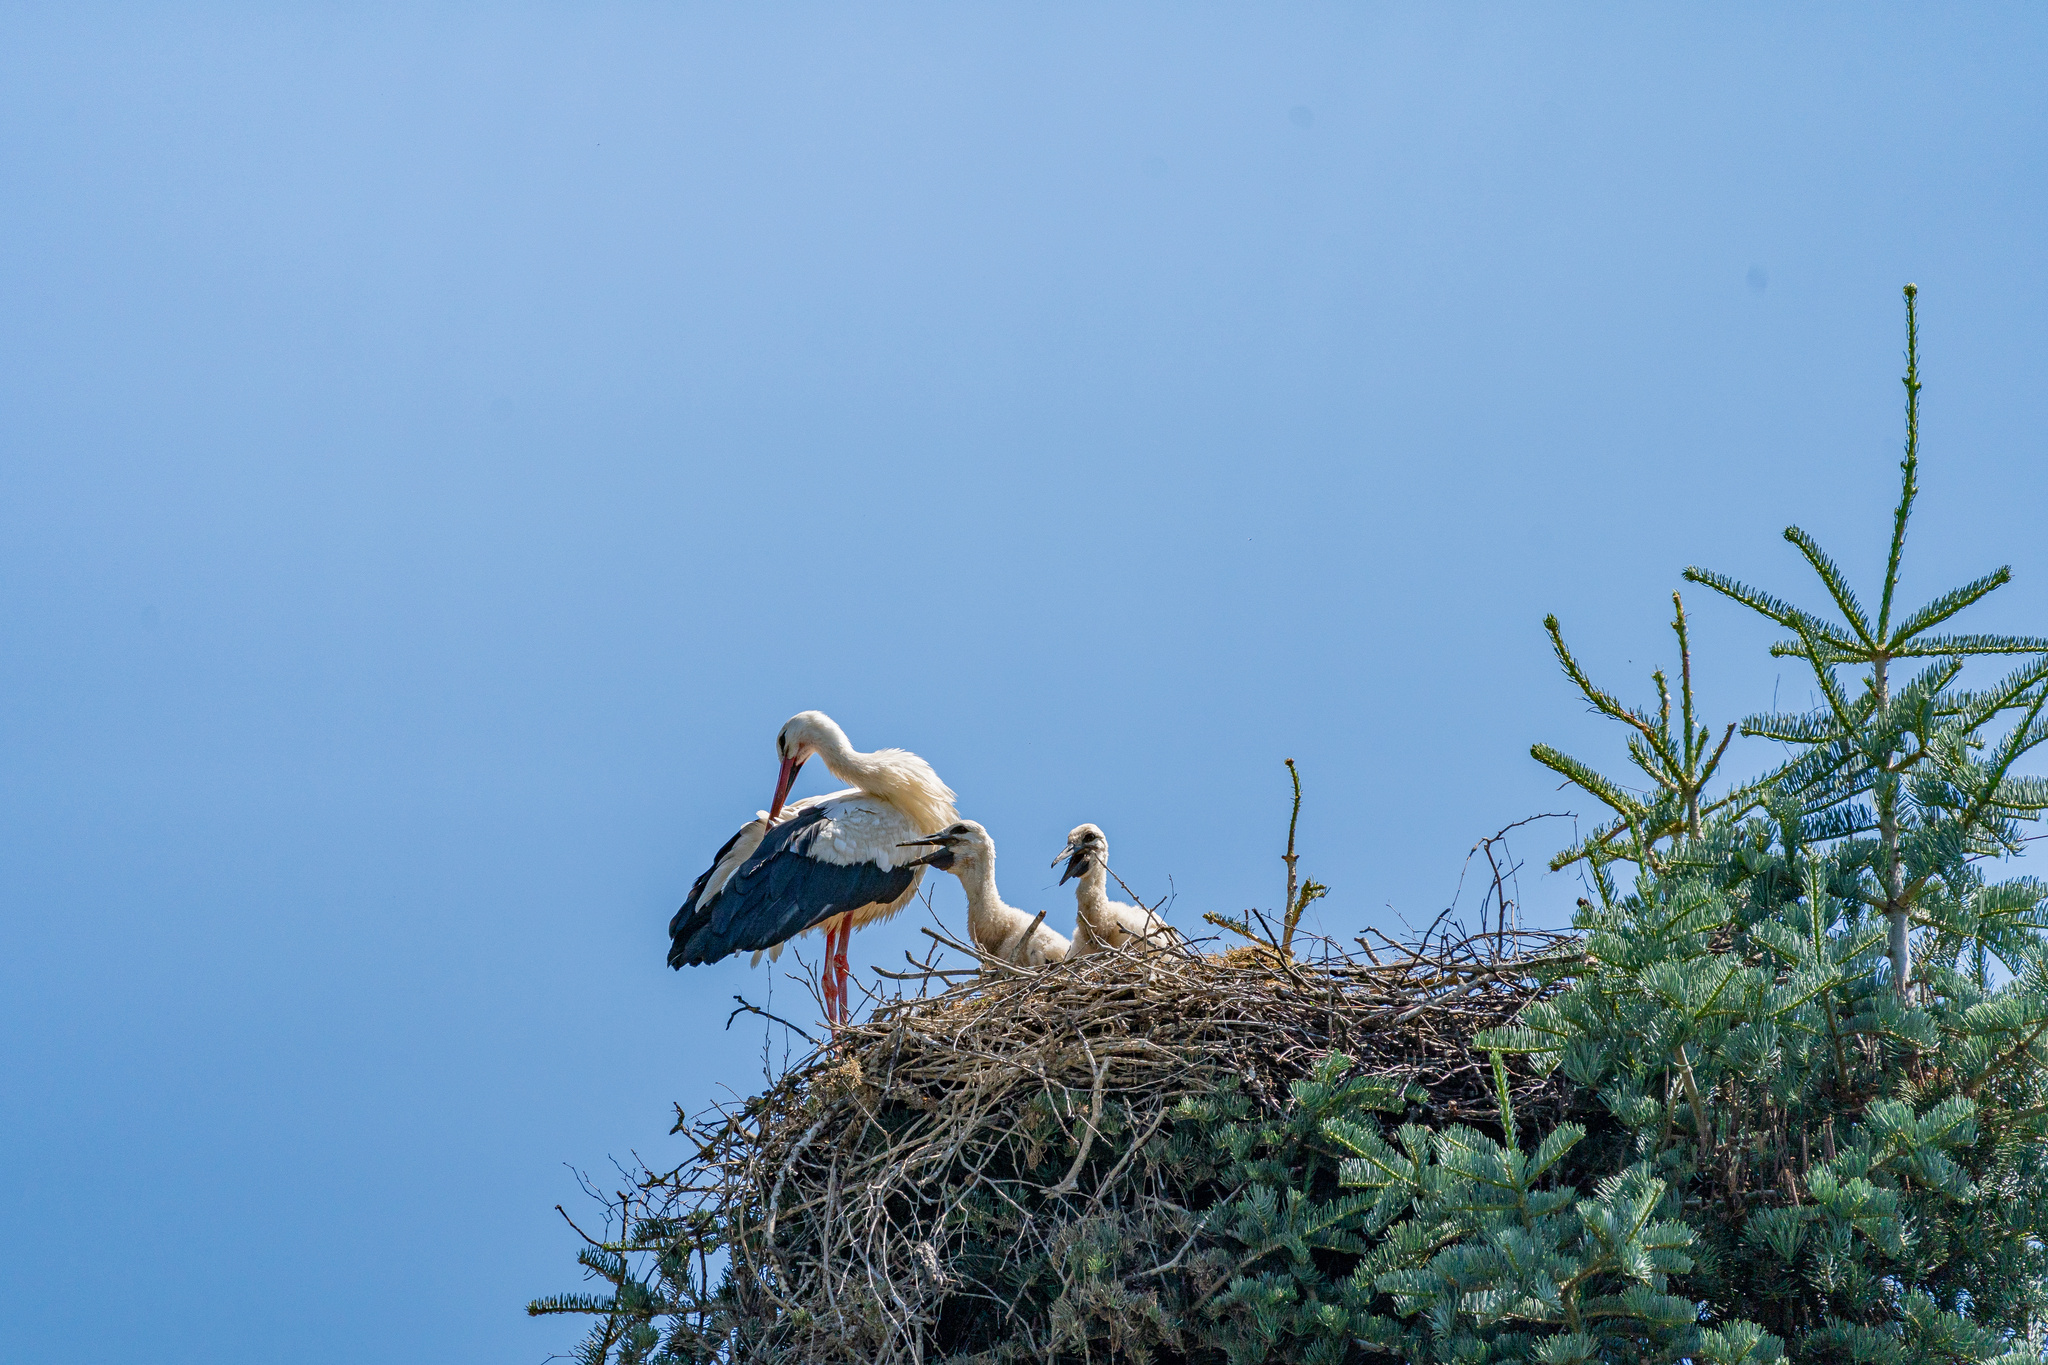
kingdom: Animalia
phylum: Chordata
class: Aves
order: Ciconiiformes
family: Ciconiidae
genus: Ciconia
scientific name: Ciconia ciconia
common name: White stork
